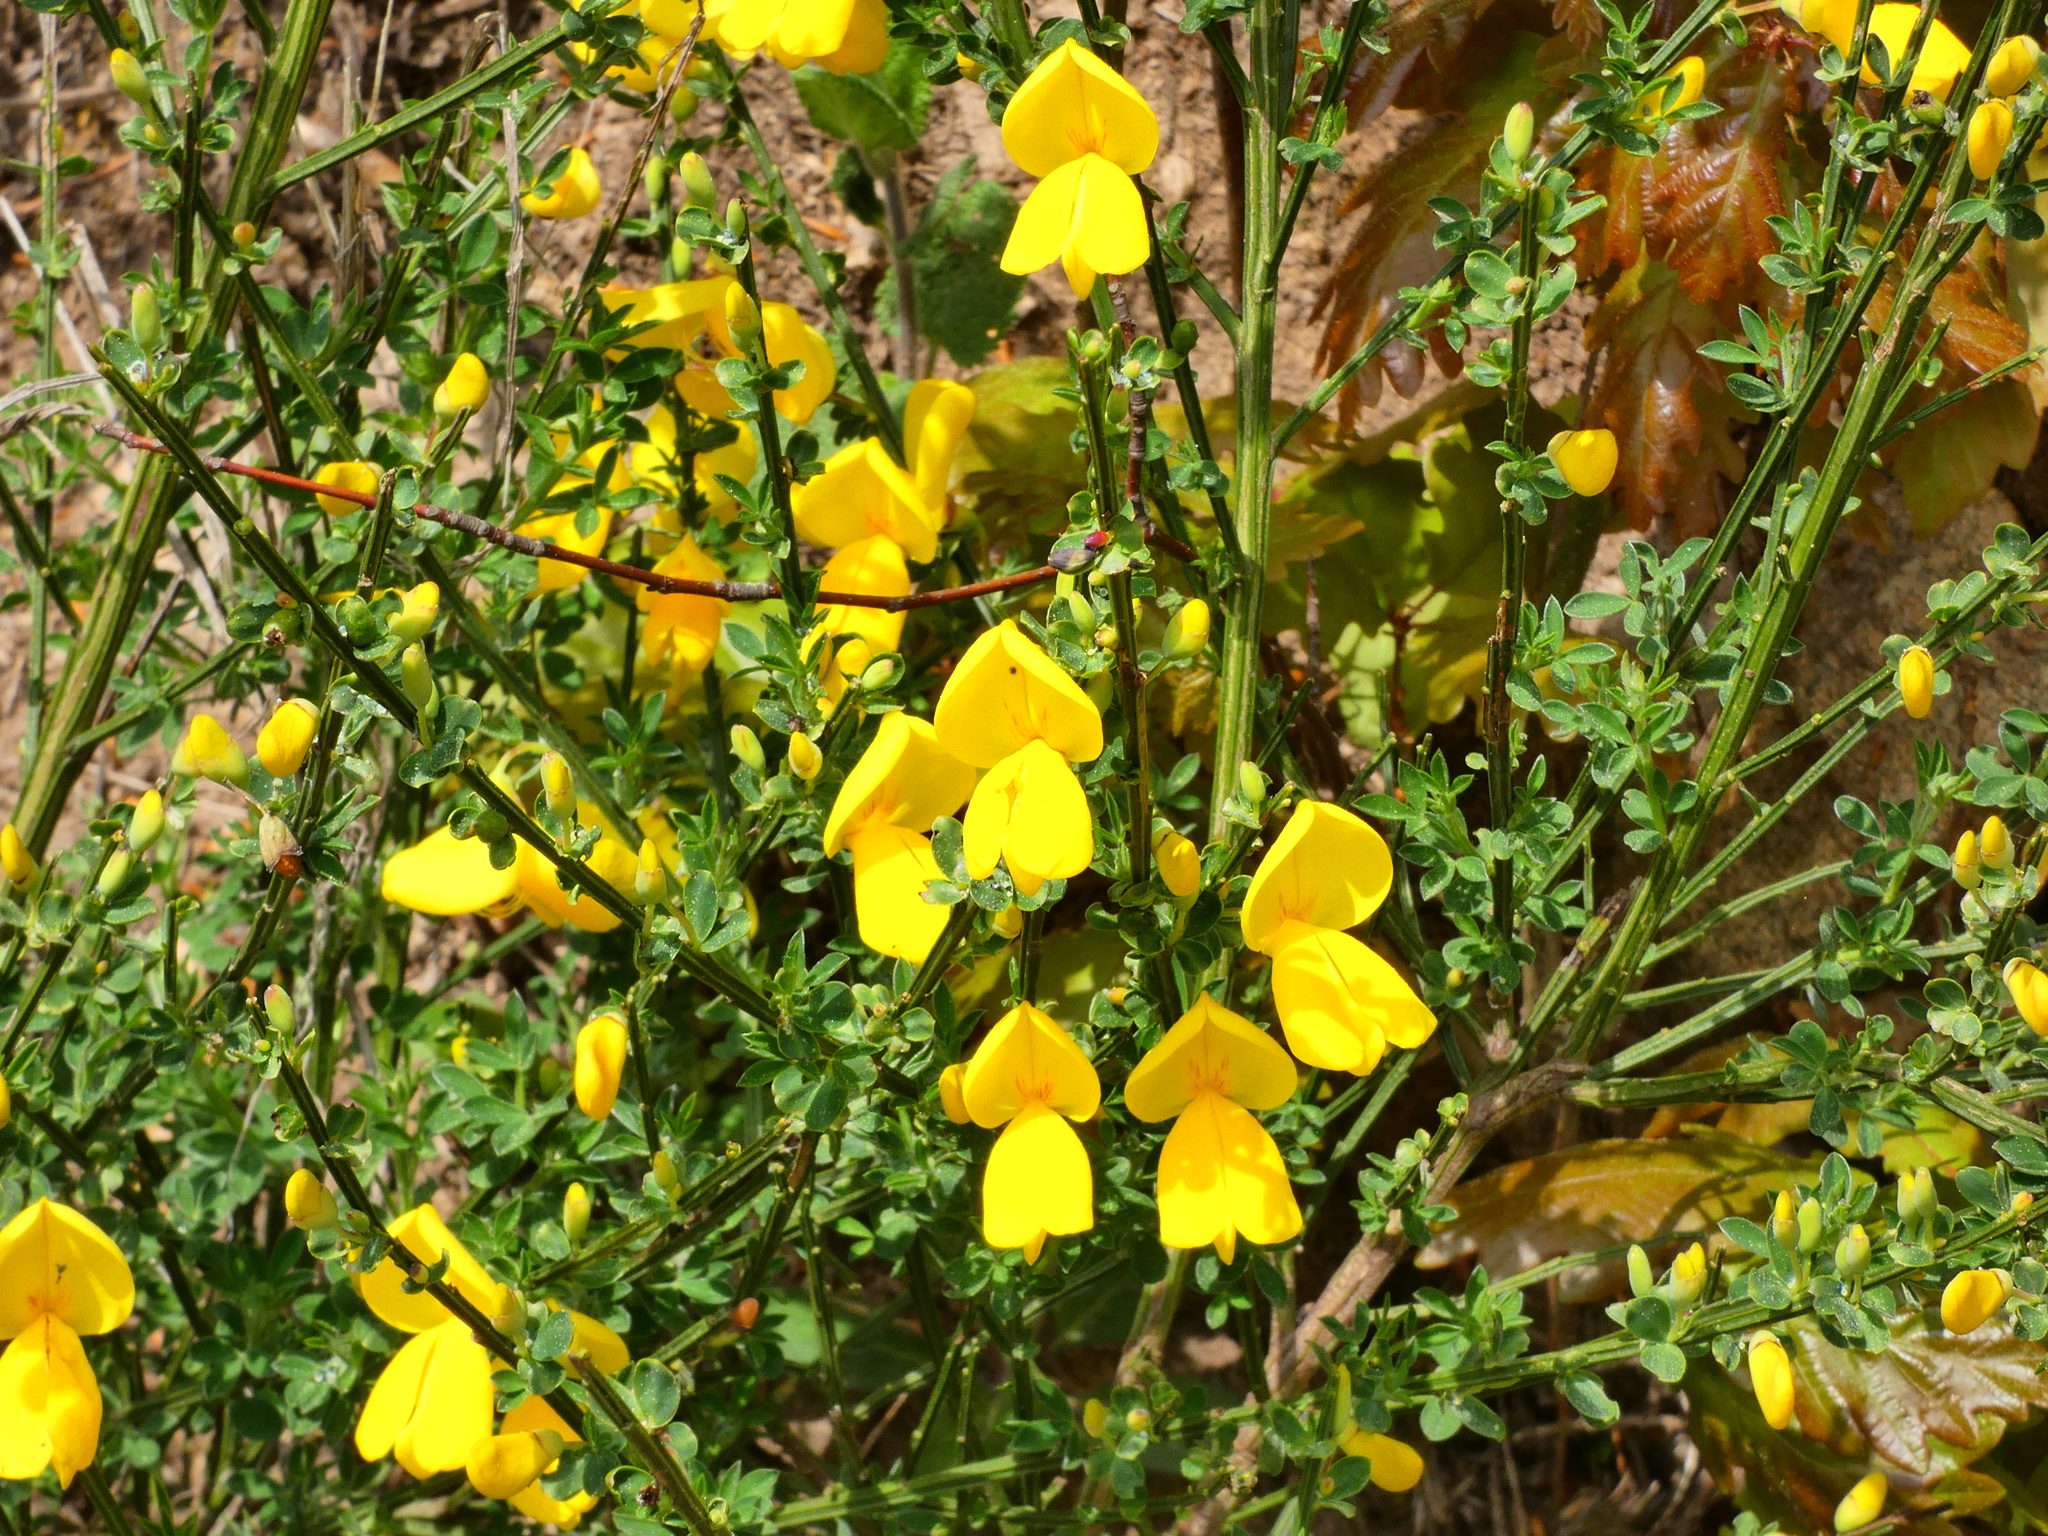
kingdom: Plantae
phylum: Tracheophyta
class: Magnoliopsida
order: Fabales
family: Fabaceae
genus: Cytisus
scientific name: Cytisus scoparius
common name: Scotch broom
